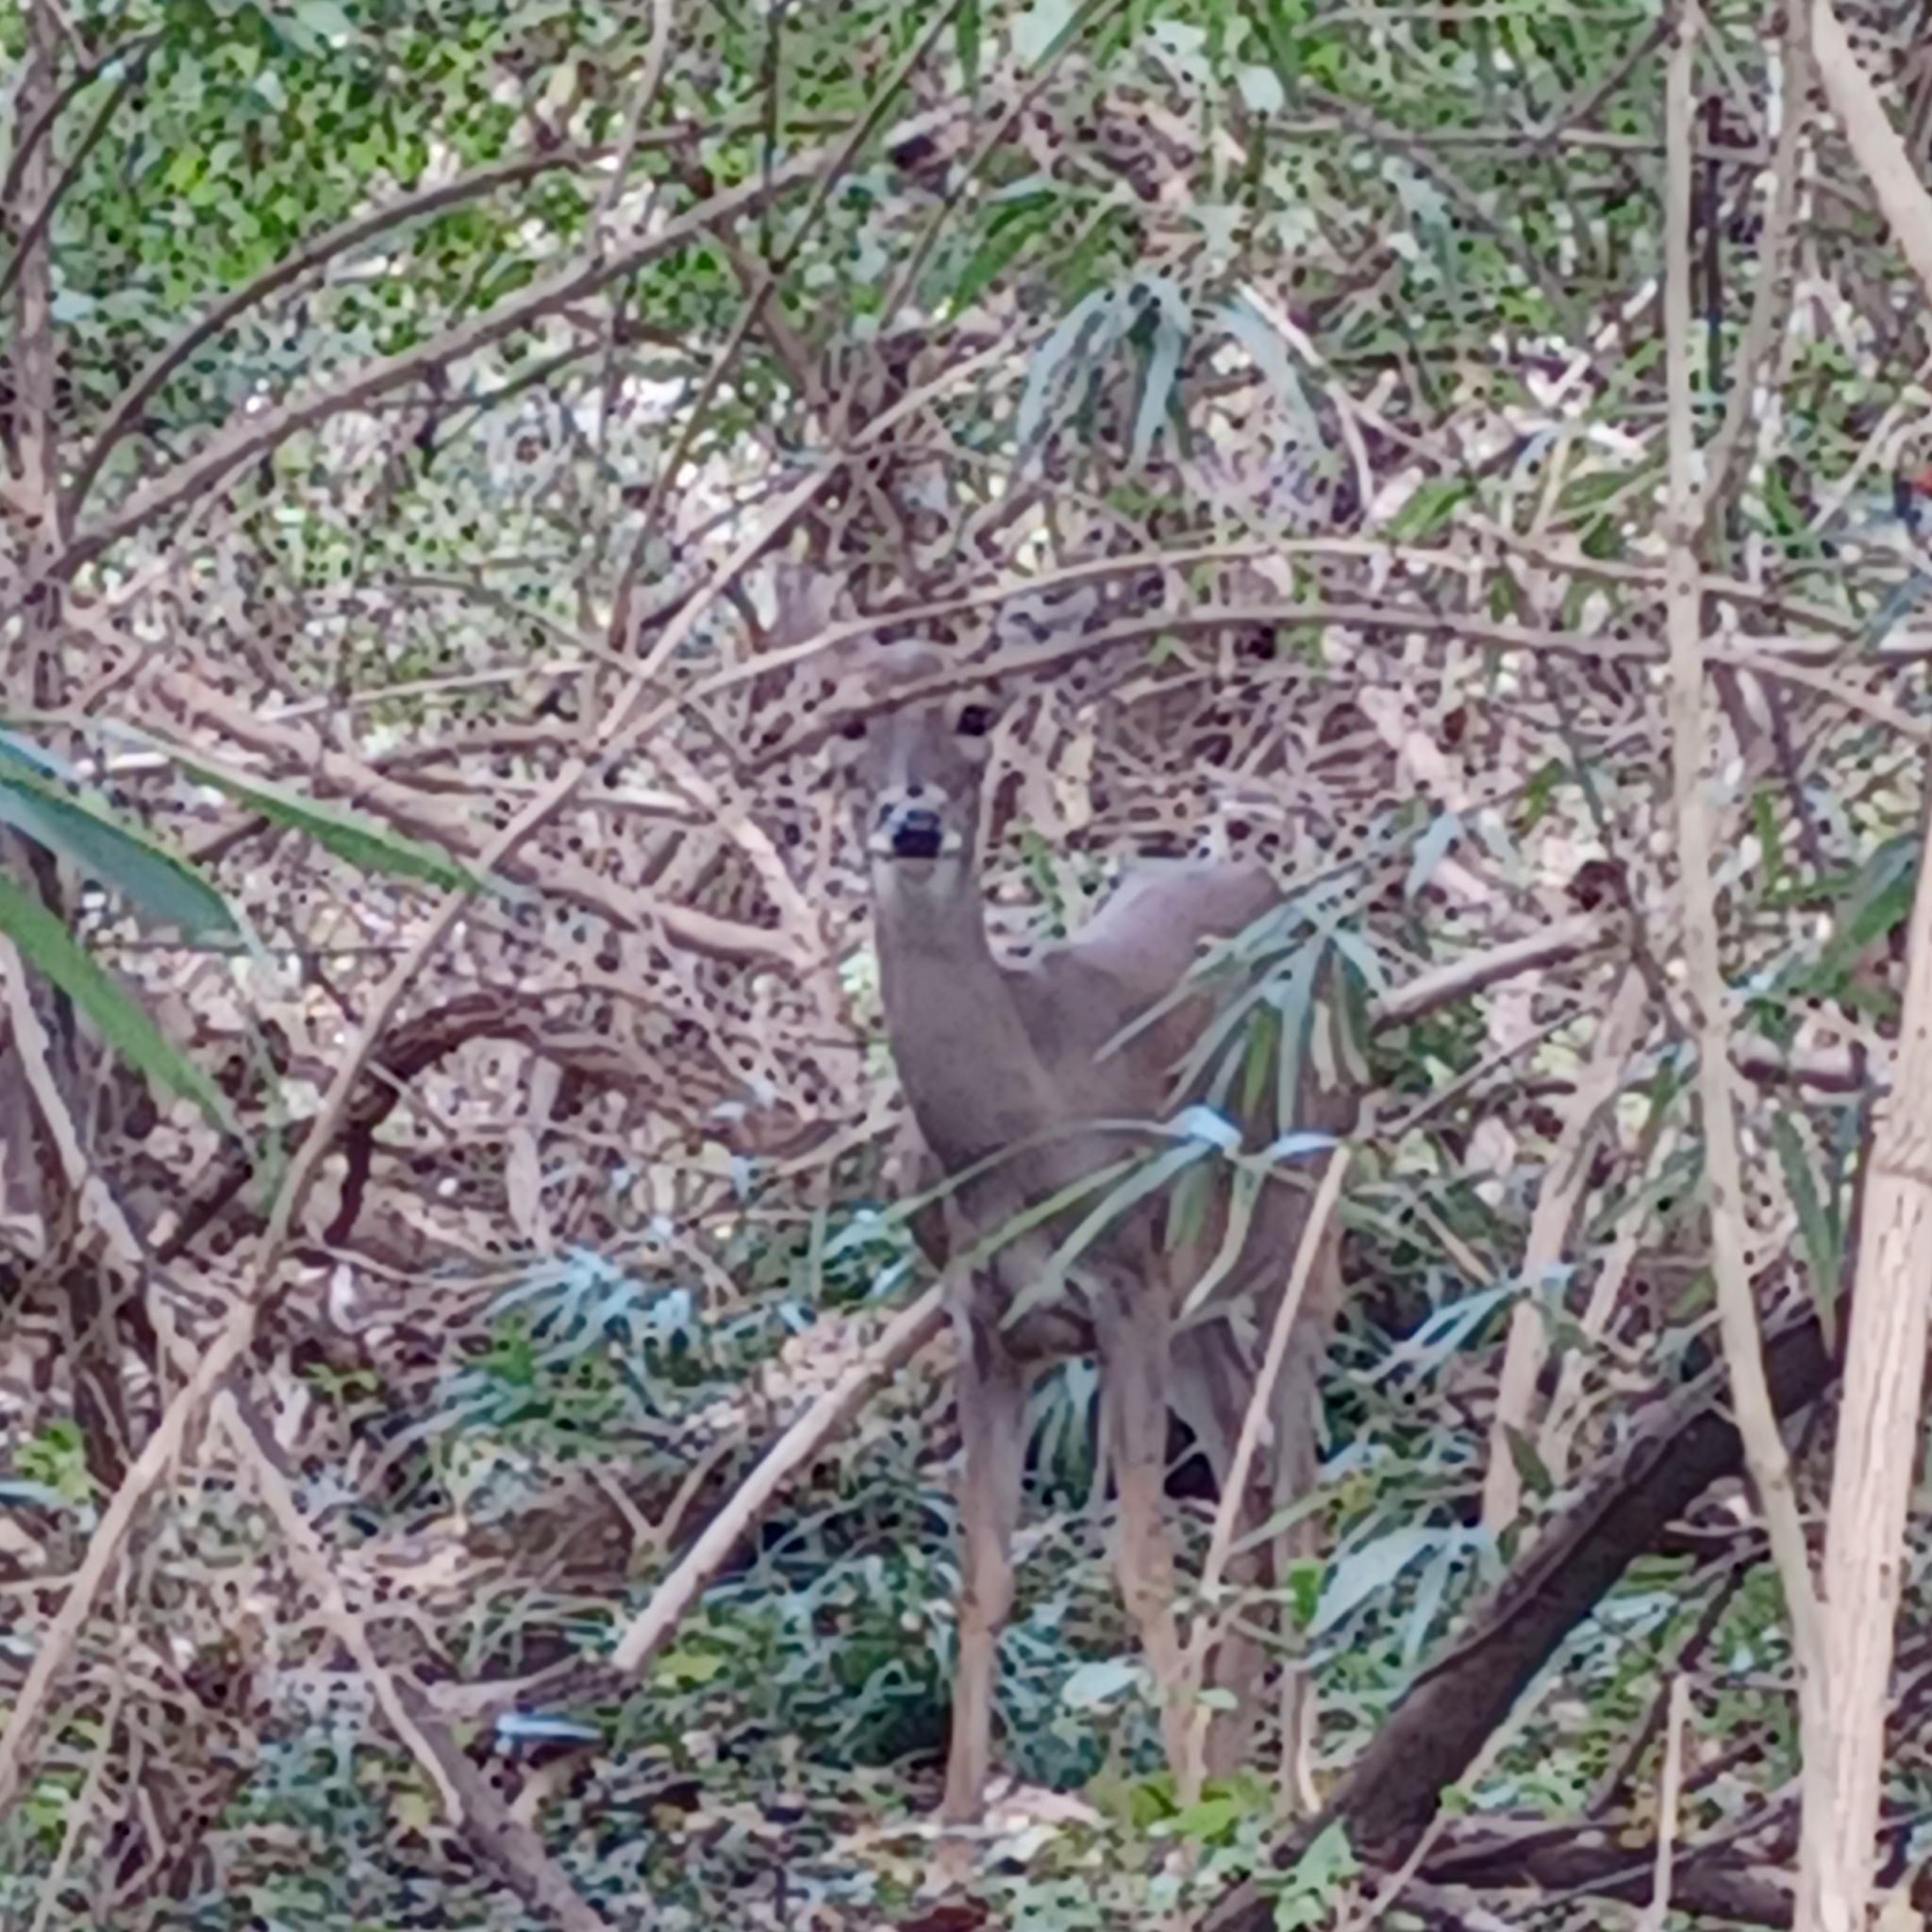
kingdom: Animalia
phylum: Chordata
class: Mammalia
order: Artiodactyla
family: Cervidae
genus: Odocoileus
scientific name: Odocoileus virginianus
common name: White-tailed deer
